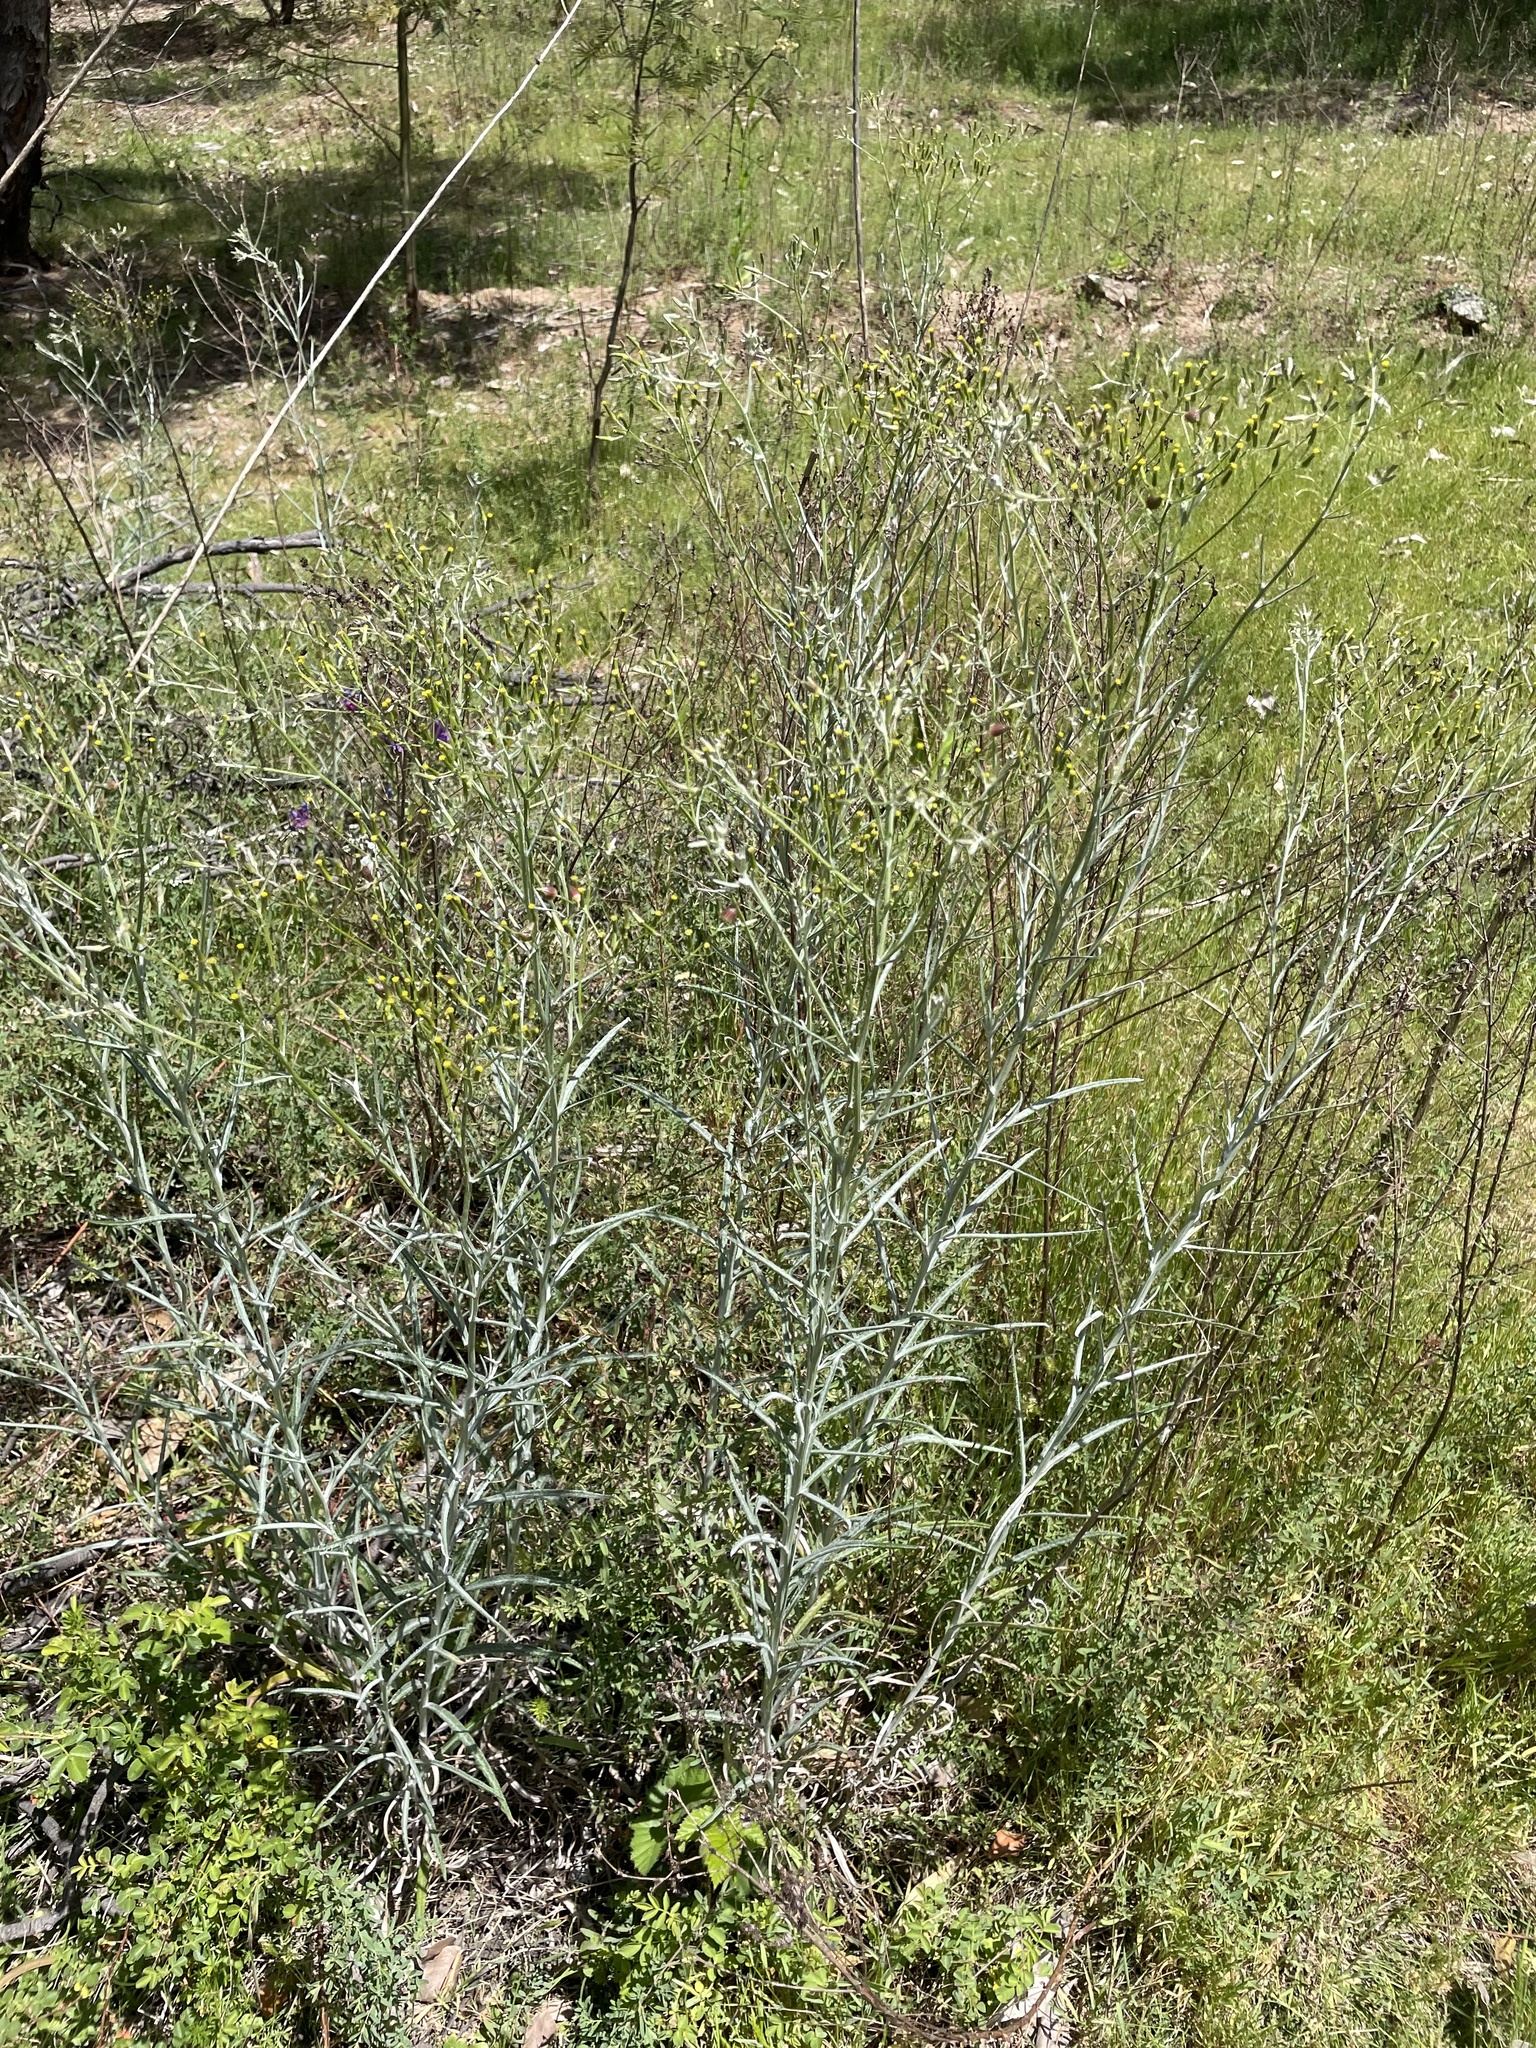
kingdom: Plantae
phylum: Tracheophyta
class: Magnoliopsida
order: Asterales
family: Asteraceae
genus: Senecio
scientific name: Senecio quadridentatus
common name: Cotton fireweed
